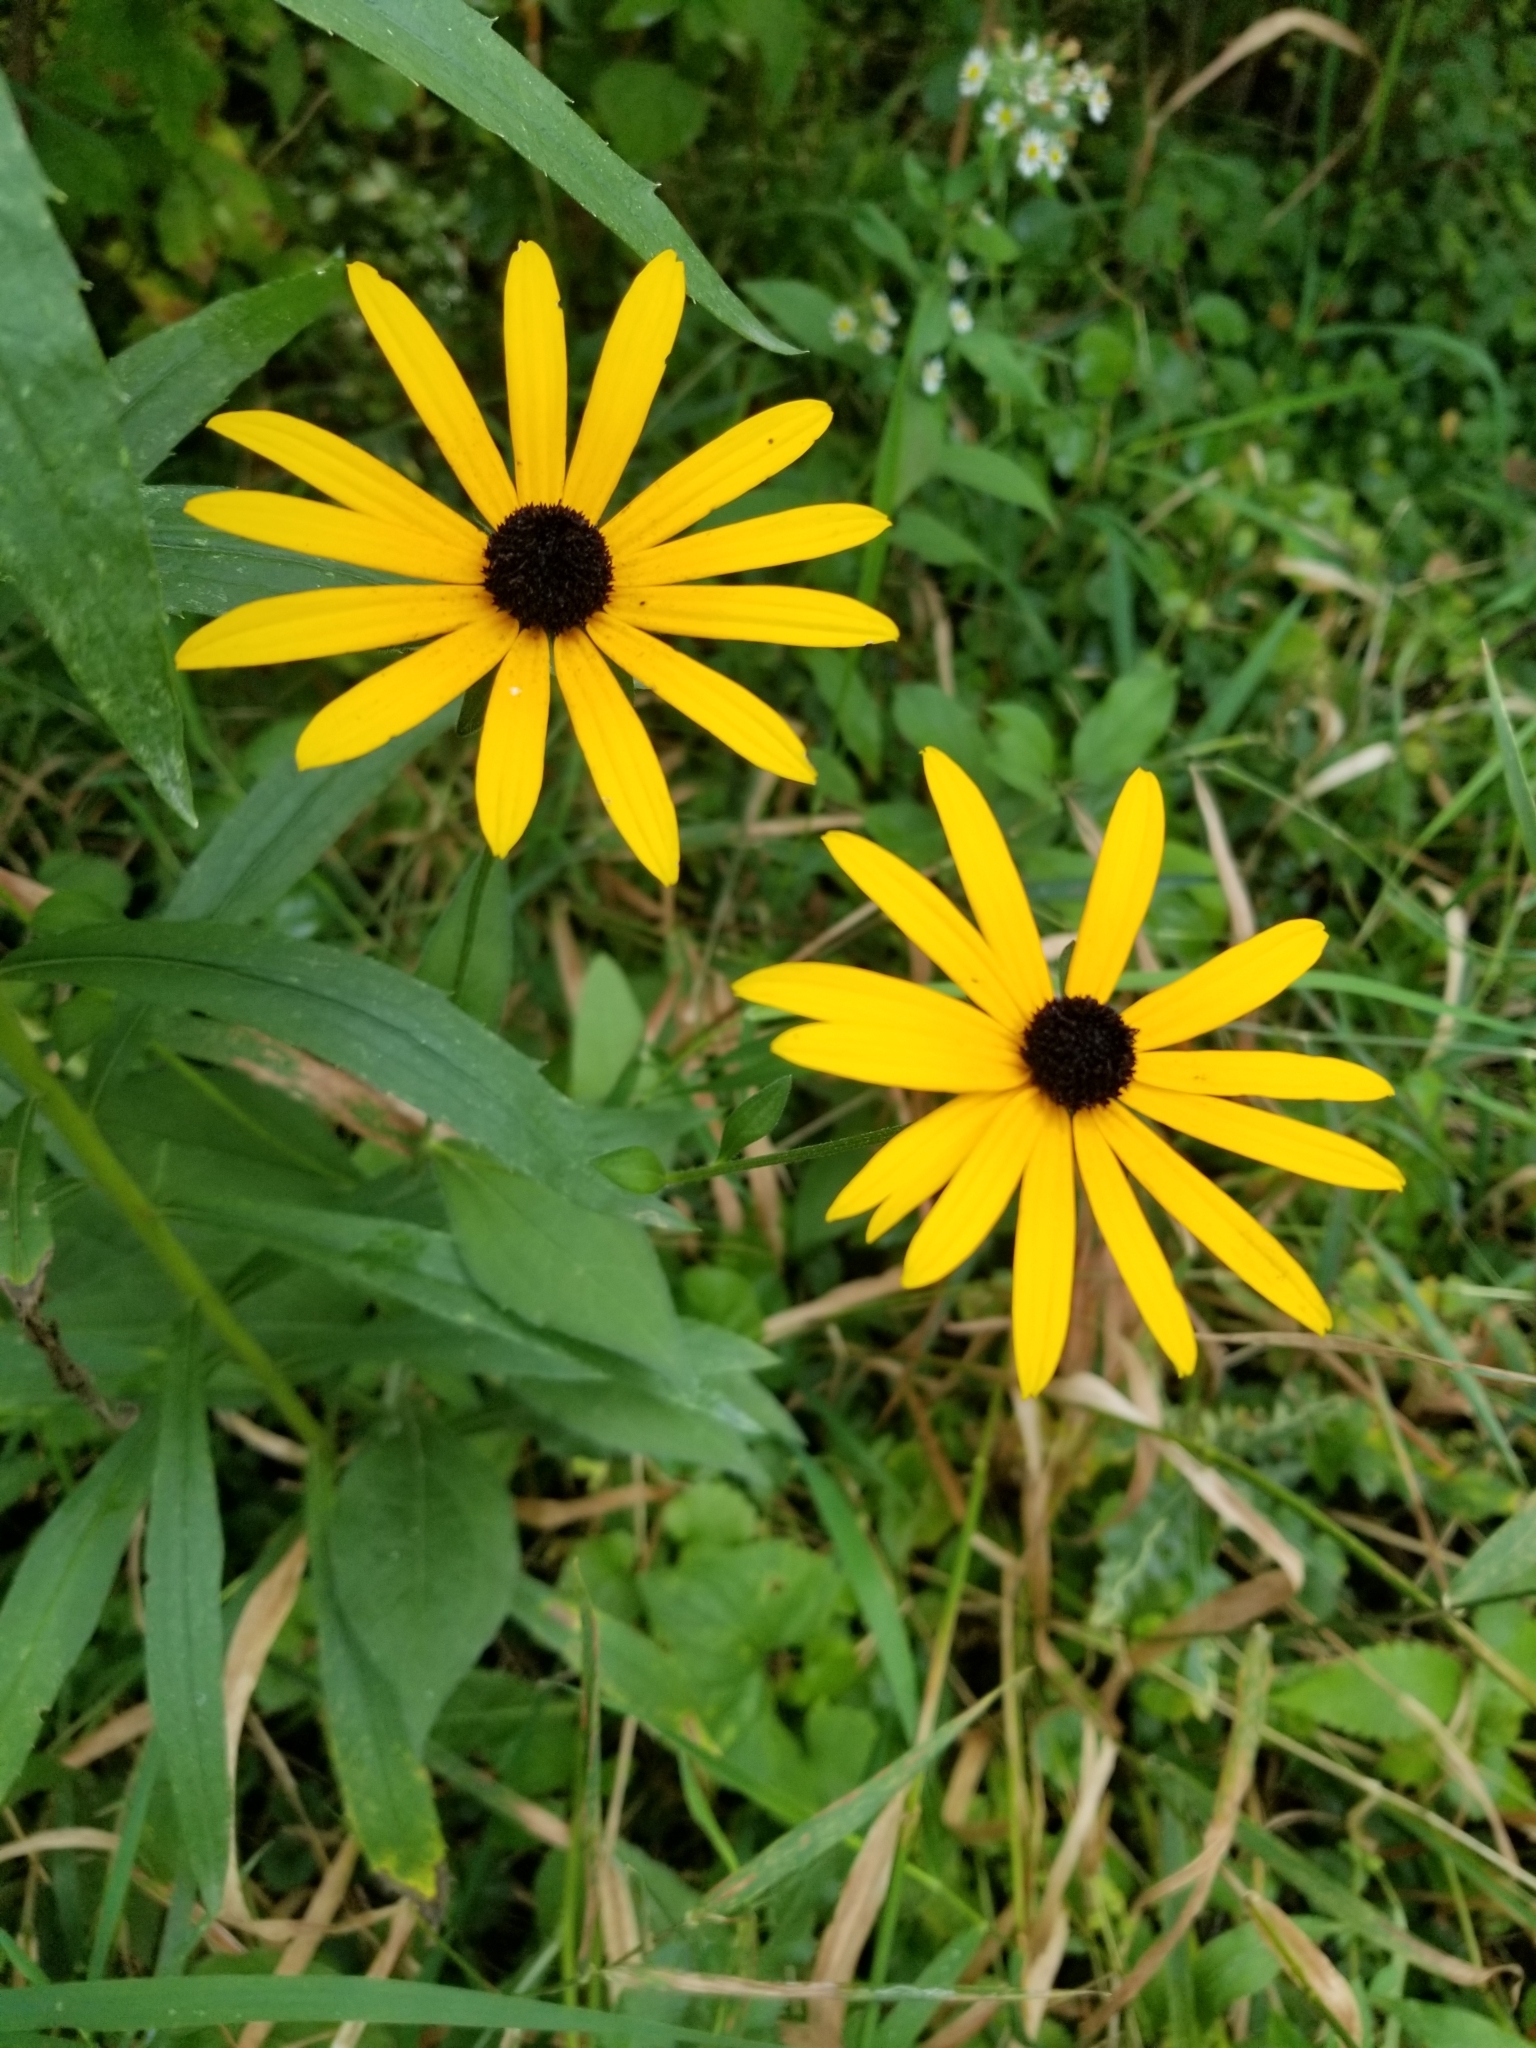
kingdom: Plantae
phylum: Tracheophyta
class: Magnoliopsida
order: Asterales
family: Asteraceae
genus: Rudbeckia
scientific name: Rudbeckia hirta
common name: Black-eyed-susan
